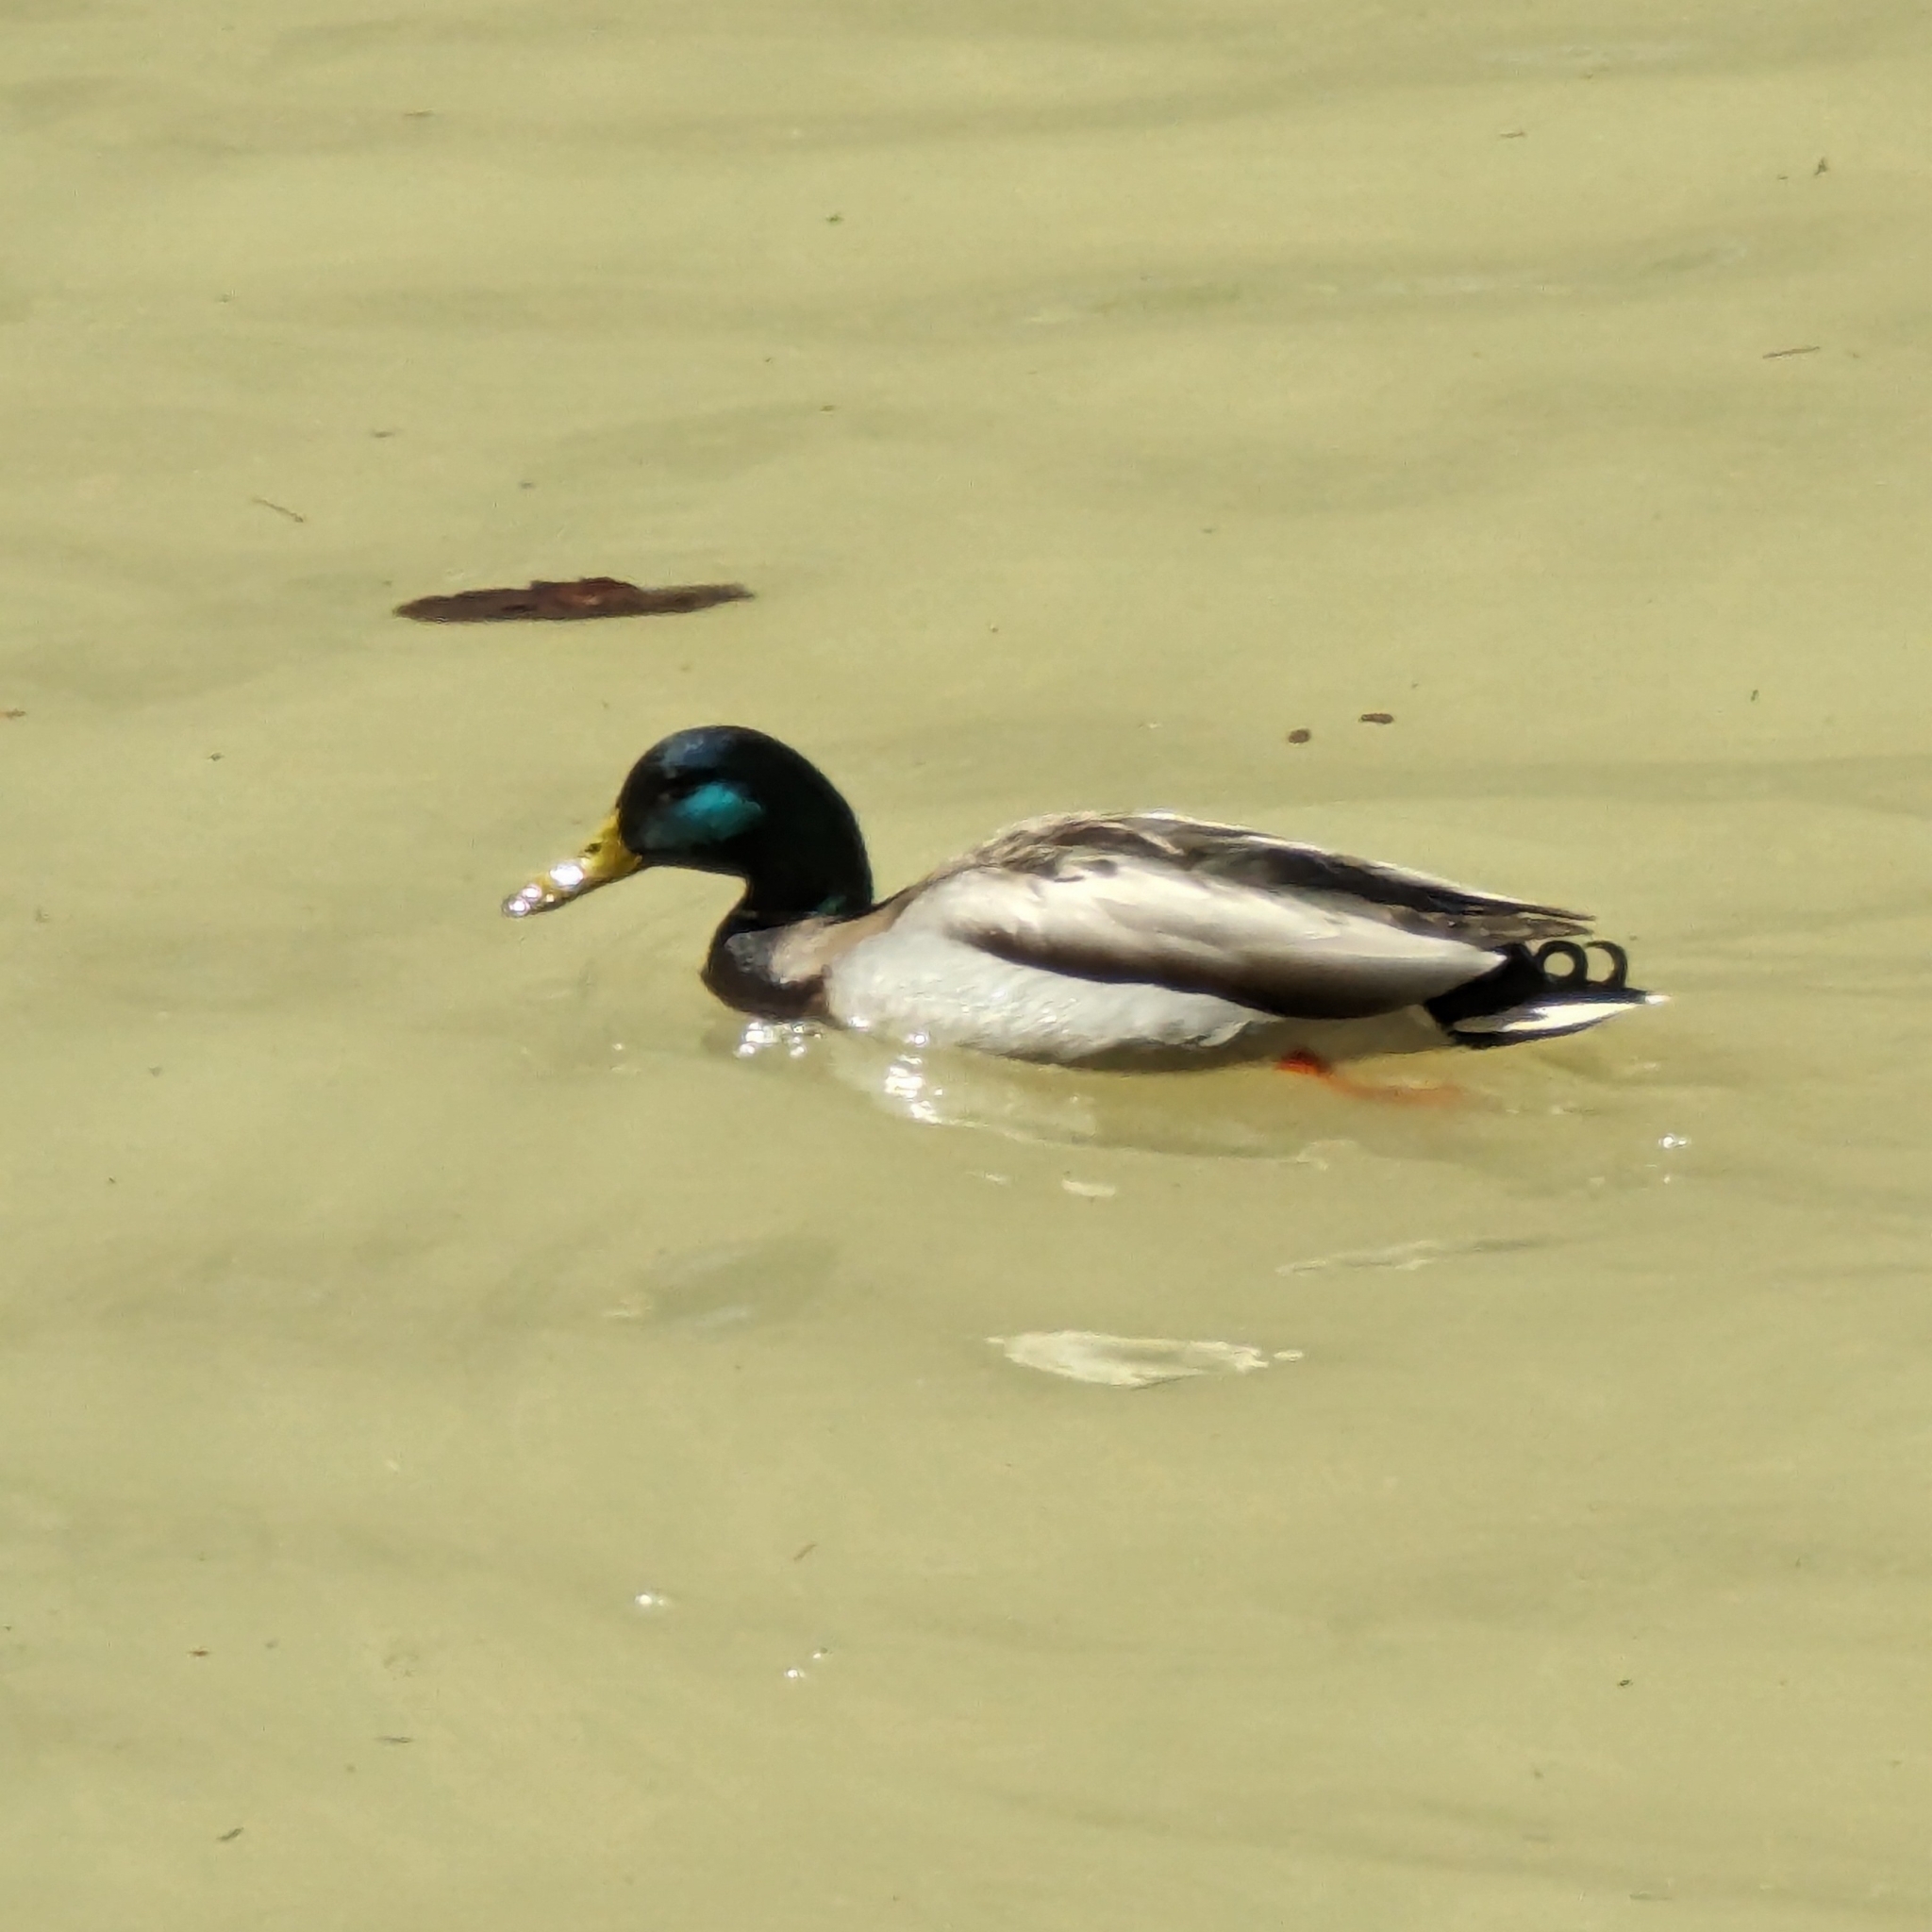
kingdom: Animalia
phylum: Chordata
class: Aves
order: Anseriformes
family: Anatidae
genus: Anas
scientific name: Anas platyrhynchos
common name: Mallard
